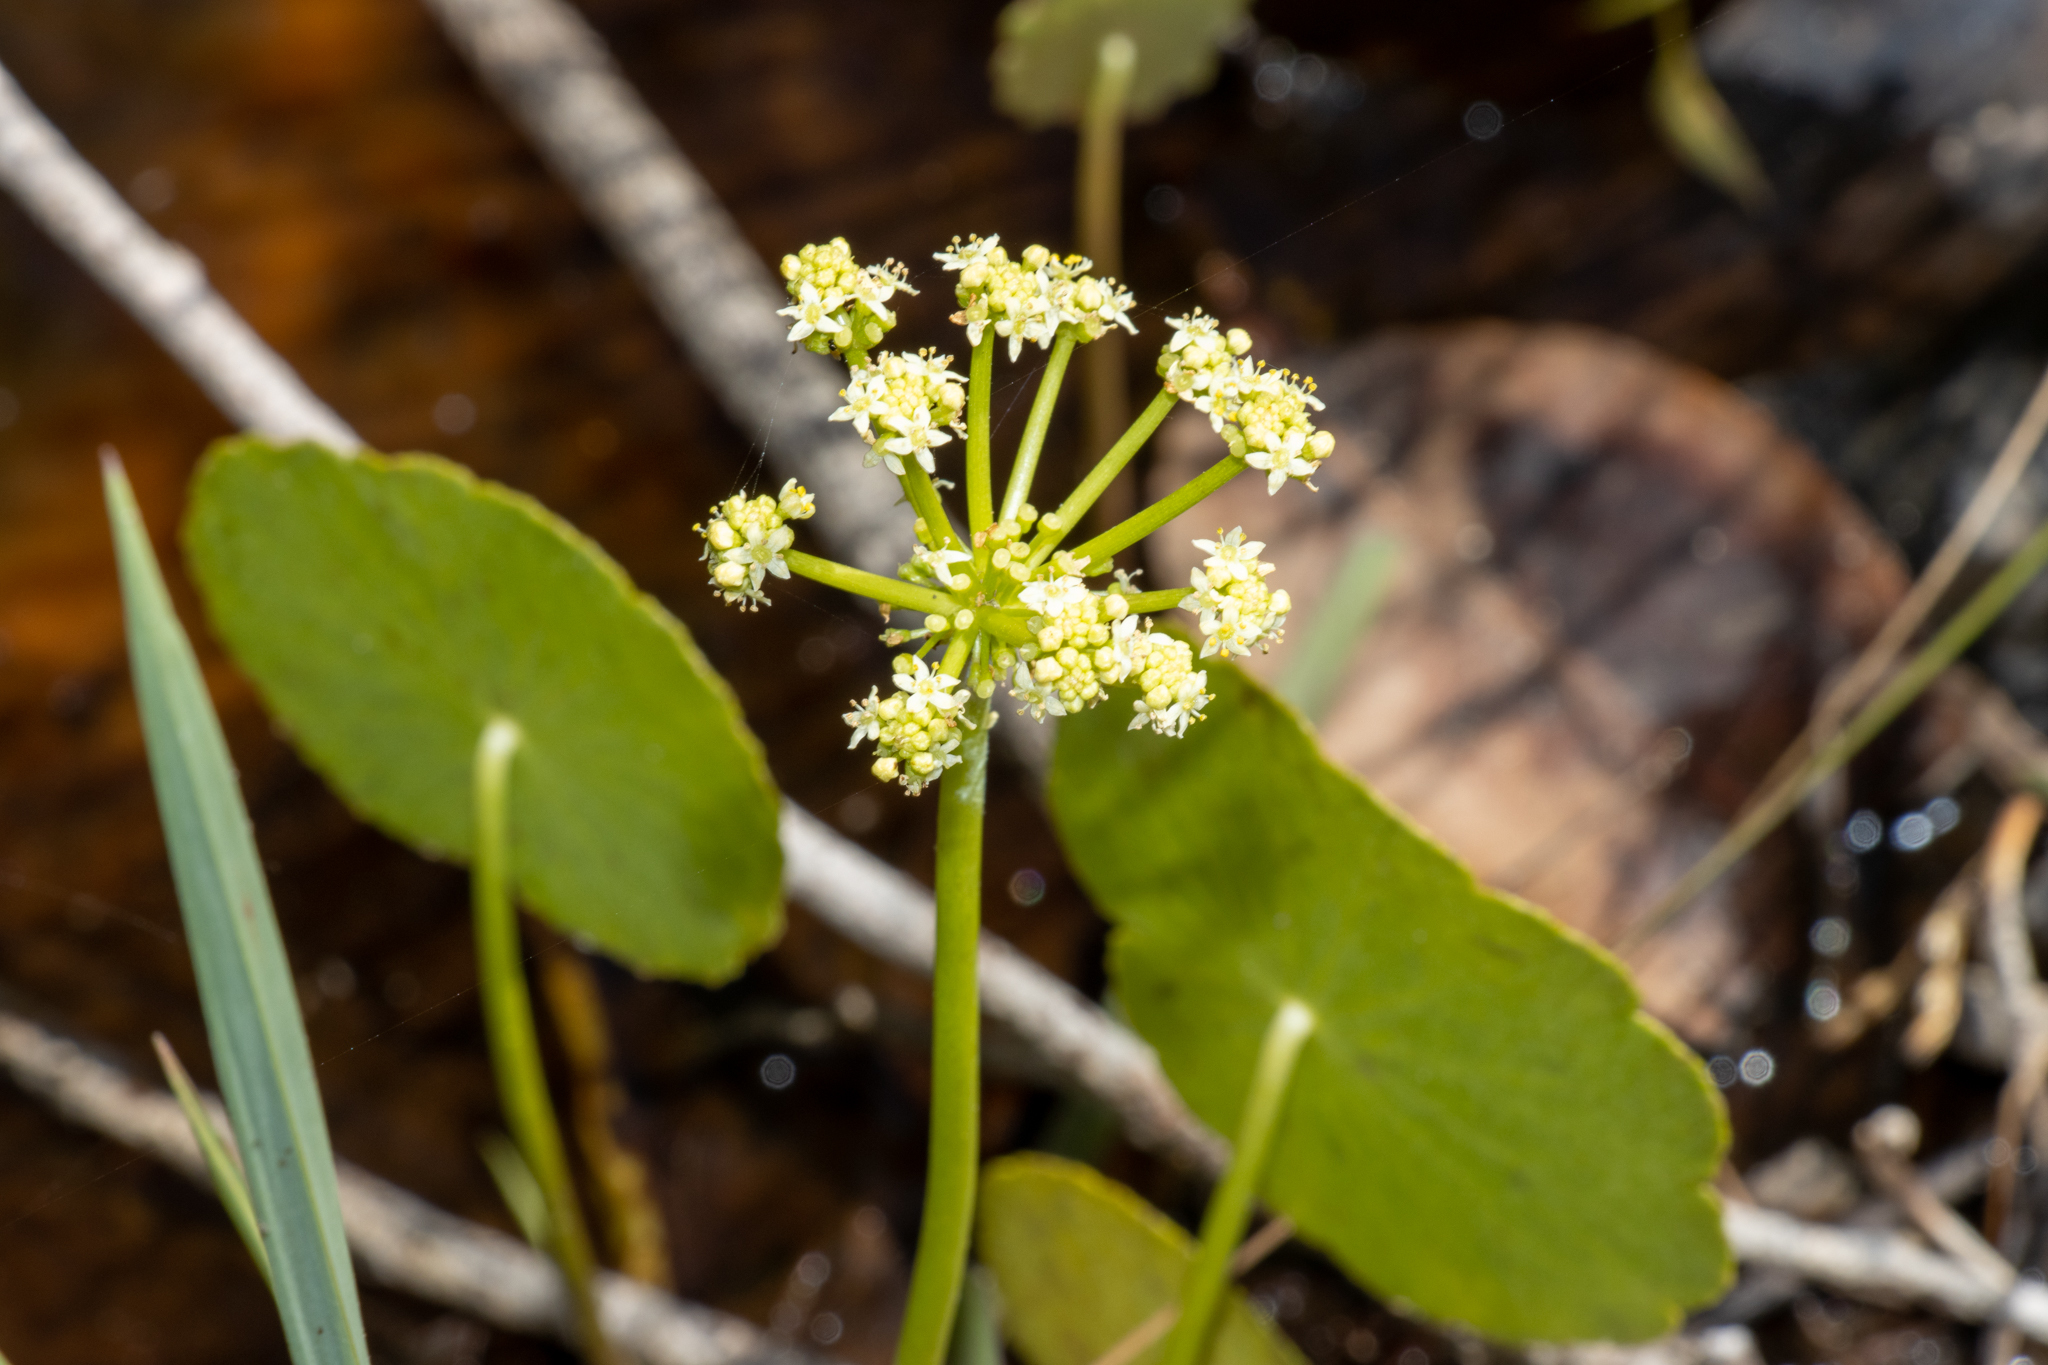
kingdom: Plantae
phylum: Tracheophyta
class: Magnoliopsida
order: Apiales
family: Araliaceae
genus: Hydrocotyle
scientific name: Hydrocotyle bonariensis
